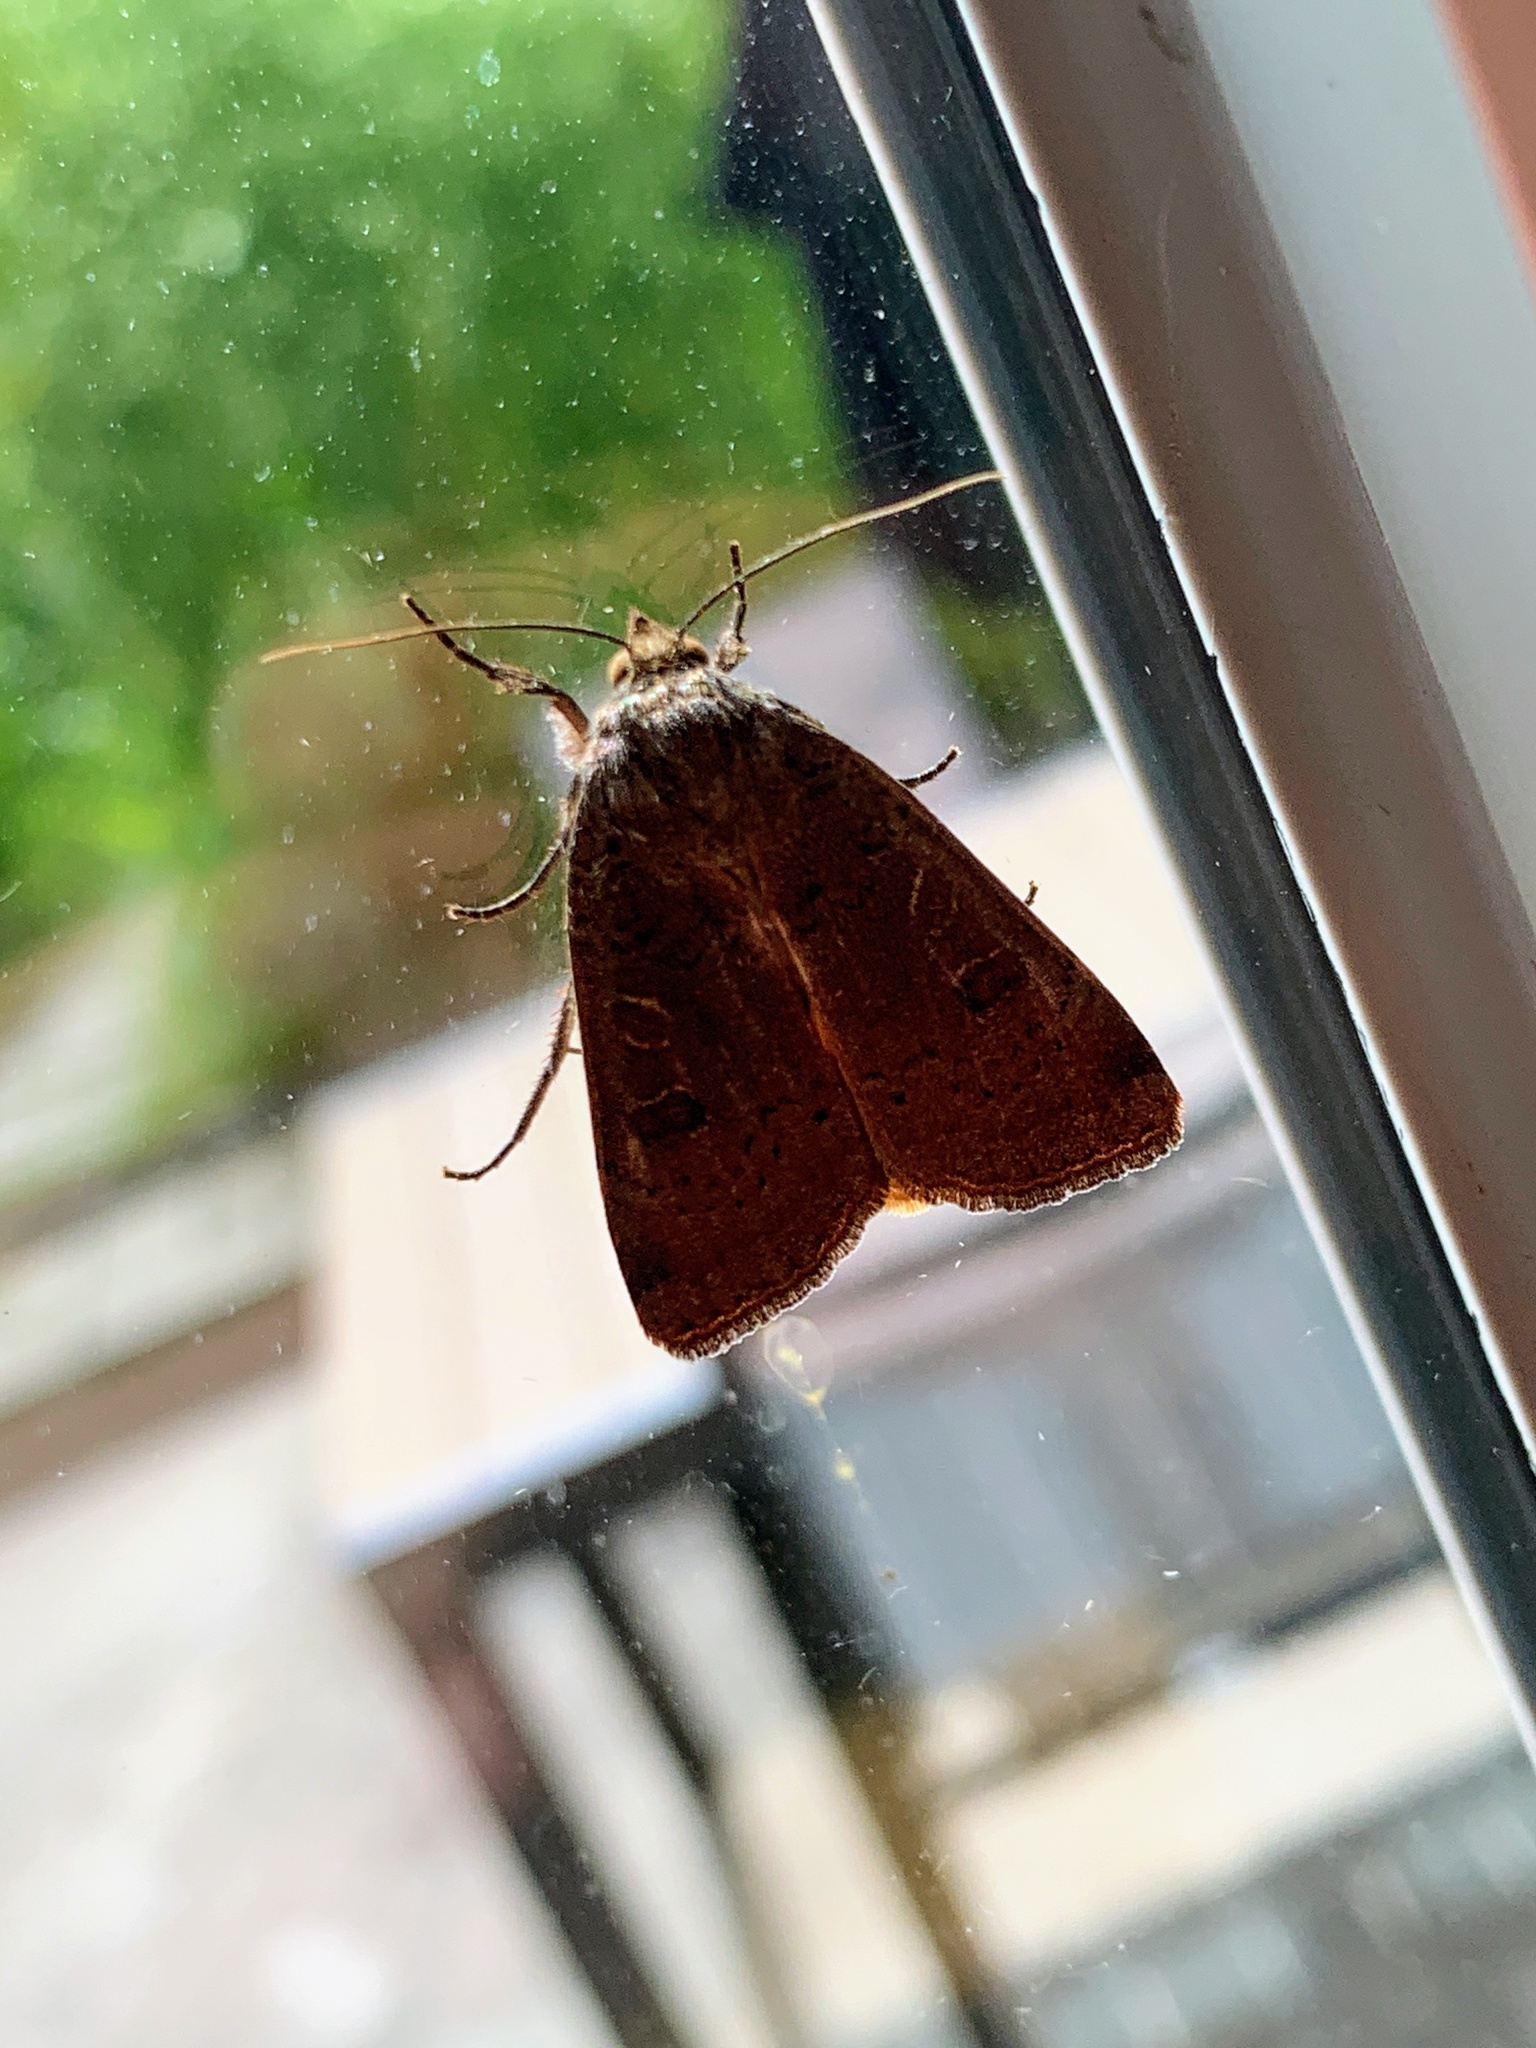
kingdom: Animalia
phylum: Arthropoda
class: Insecta
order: Lepidoptera
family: Noctuidae
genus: Noctua
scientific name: Noctua comes
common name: Lesser yellow underwing
